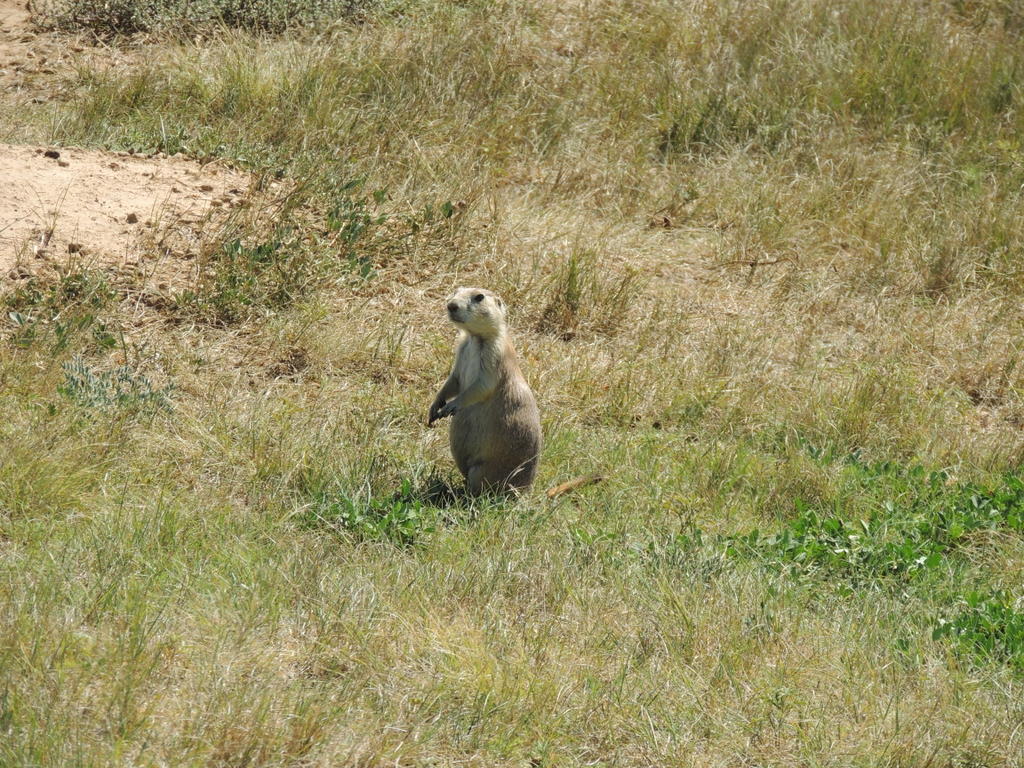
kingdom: Animalia
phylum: Chordata
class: Mammalia
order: Rodentia
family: Sciuridae
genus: Cynomys
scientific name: Cynomys ludovicianus
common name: Black-tailed prairie dog
